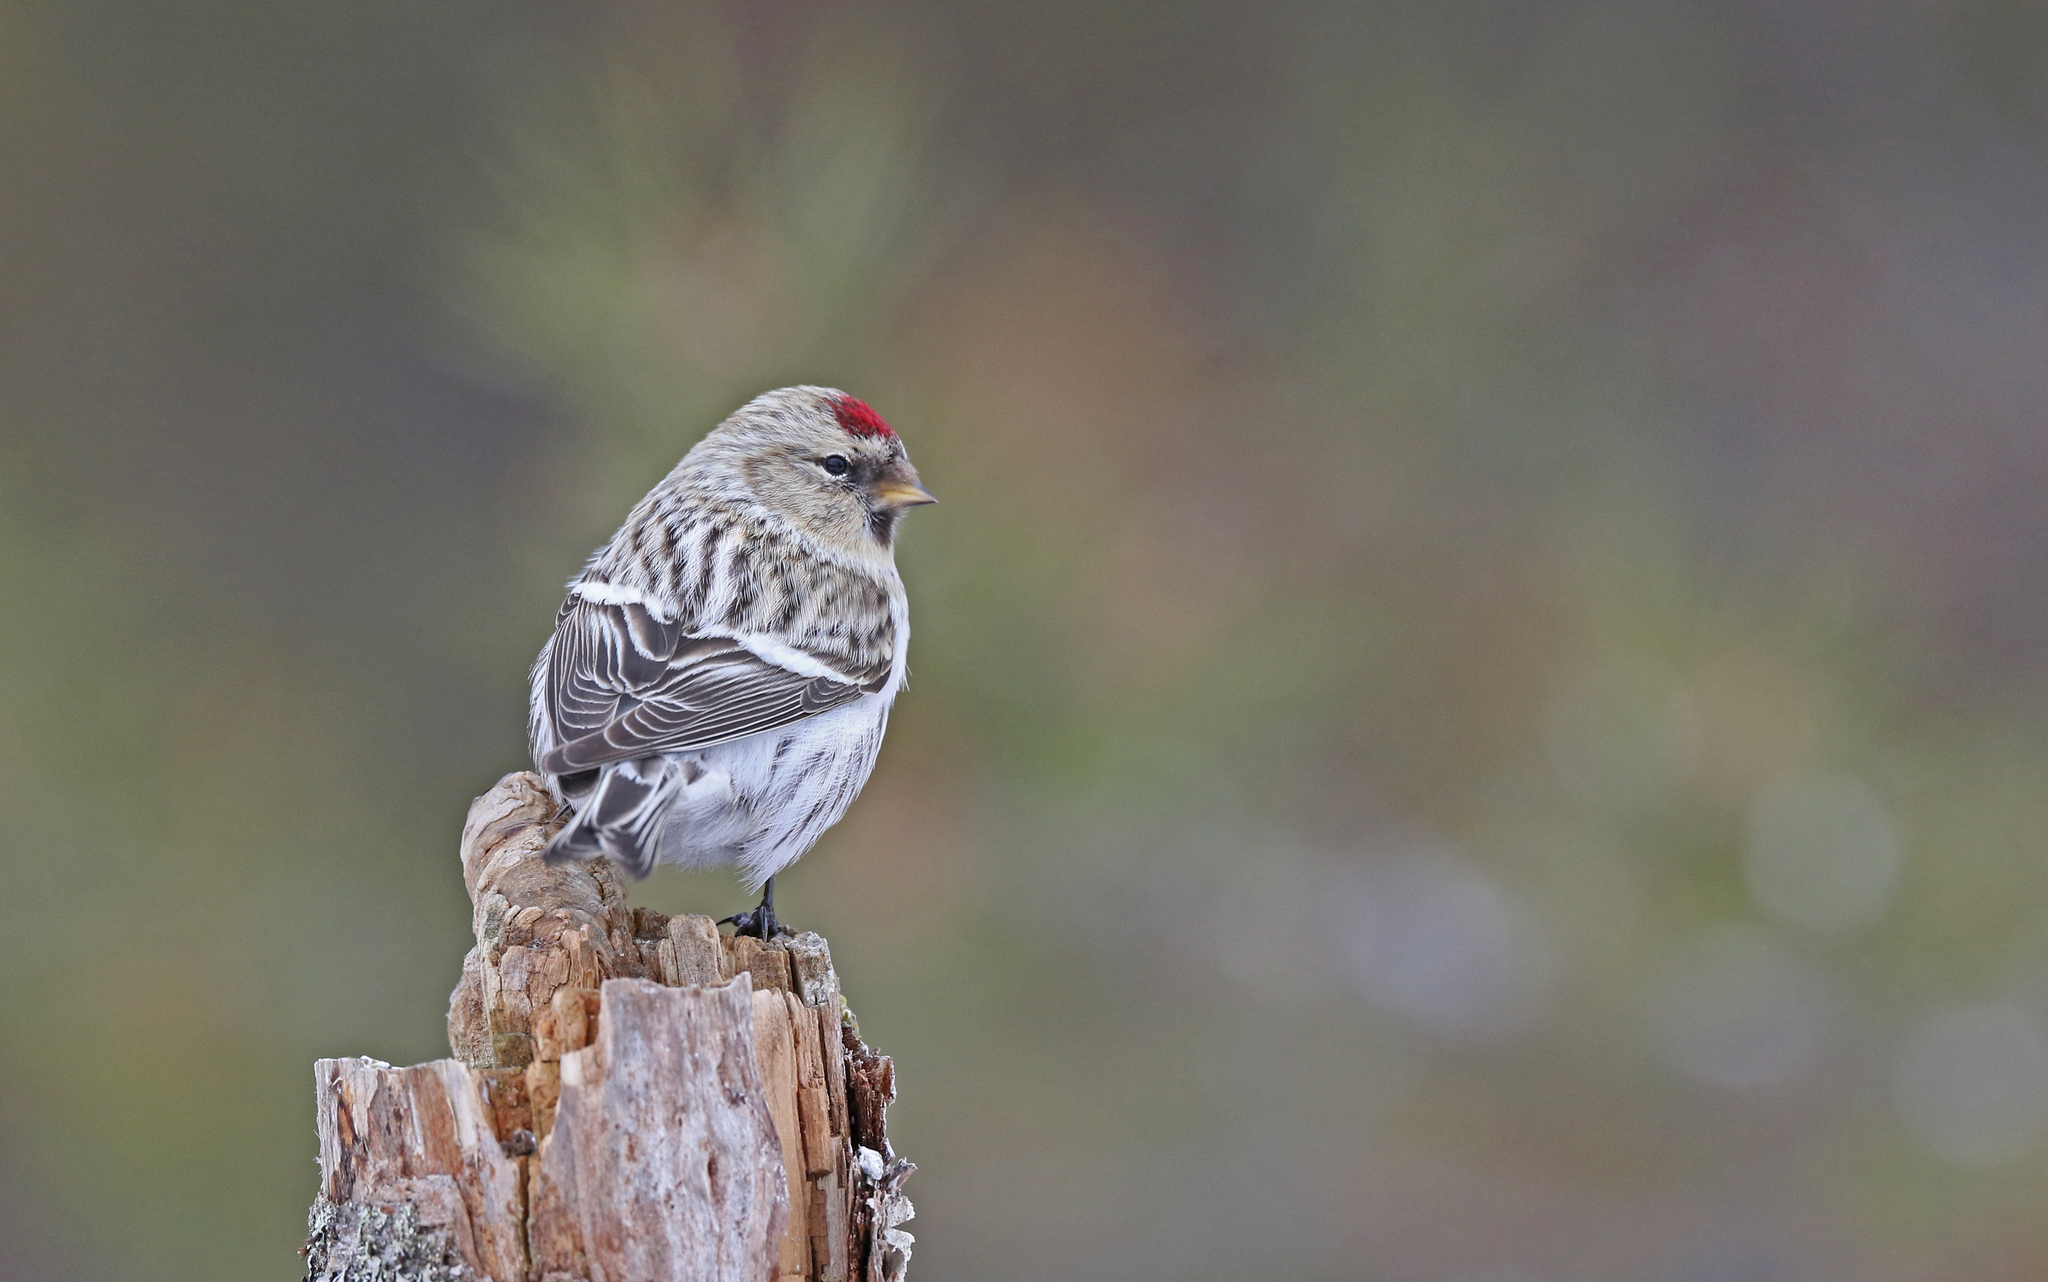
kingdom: Animalia
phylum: Chordata
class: Aves
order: Passeriformes
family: Fringillidae
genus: Acanthis
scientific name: Acanthis flammea
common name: Common redpoll
